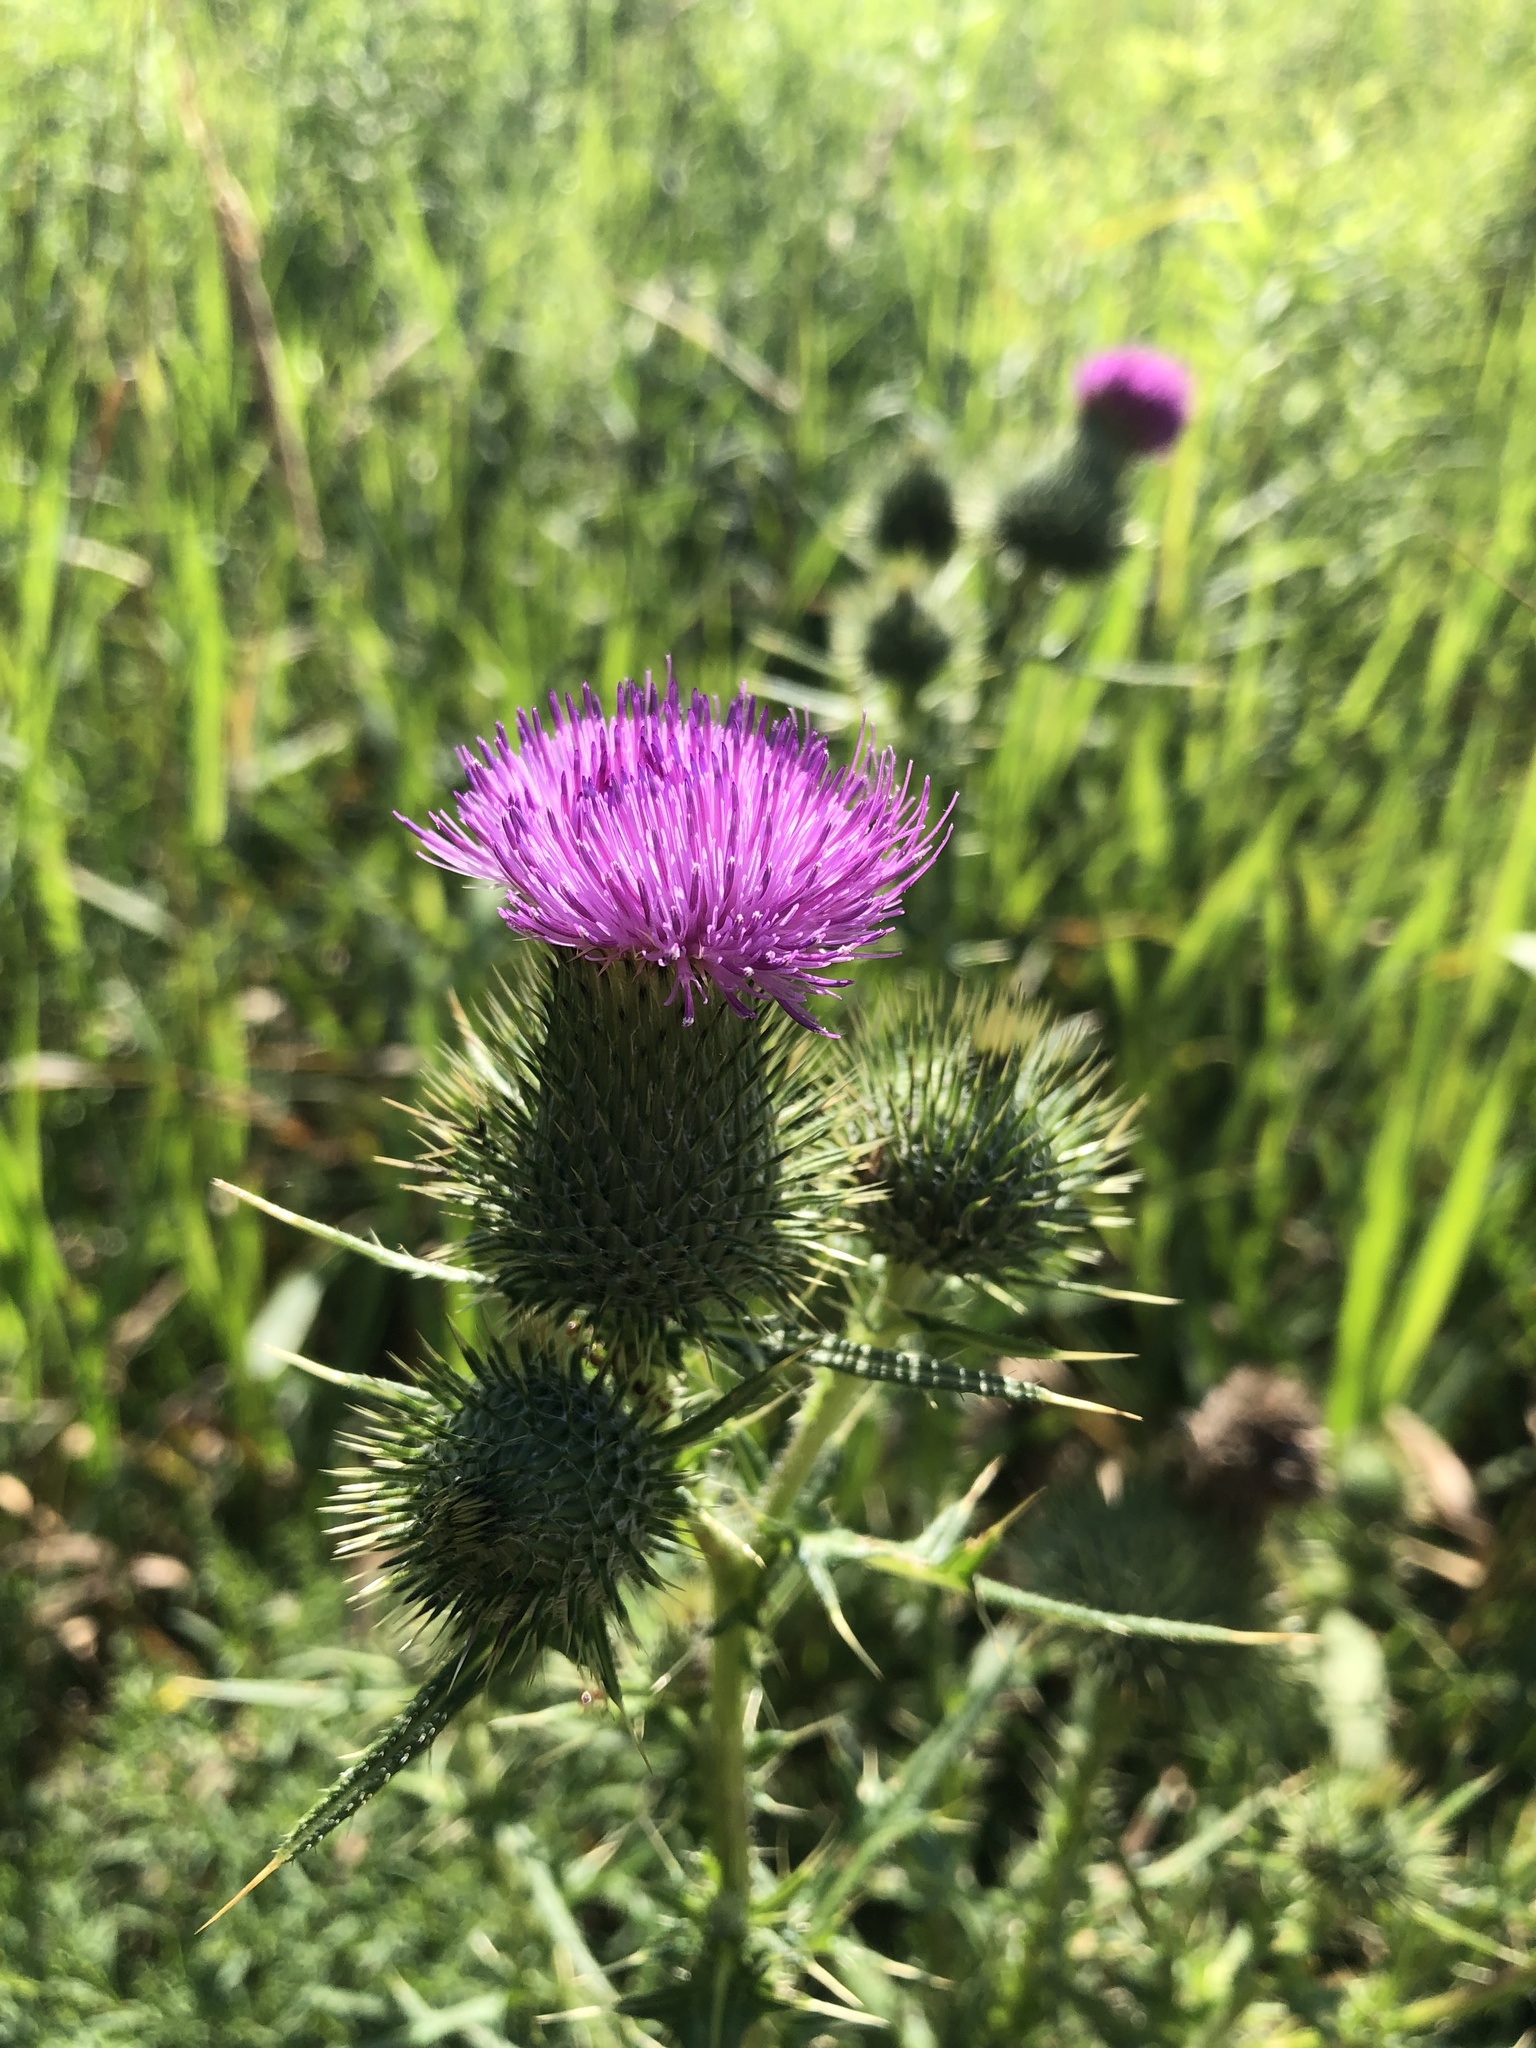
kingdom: Plantae
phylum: Tracheophyta
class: Magnoliopsida
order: Asterales
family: Asteraceae
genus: Cirsium
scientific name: Cirsium vulgare
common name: Bull thistle
